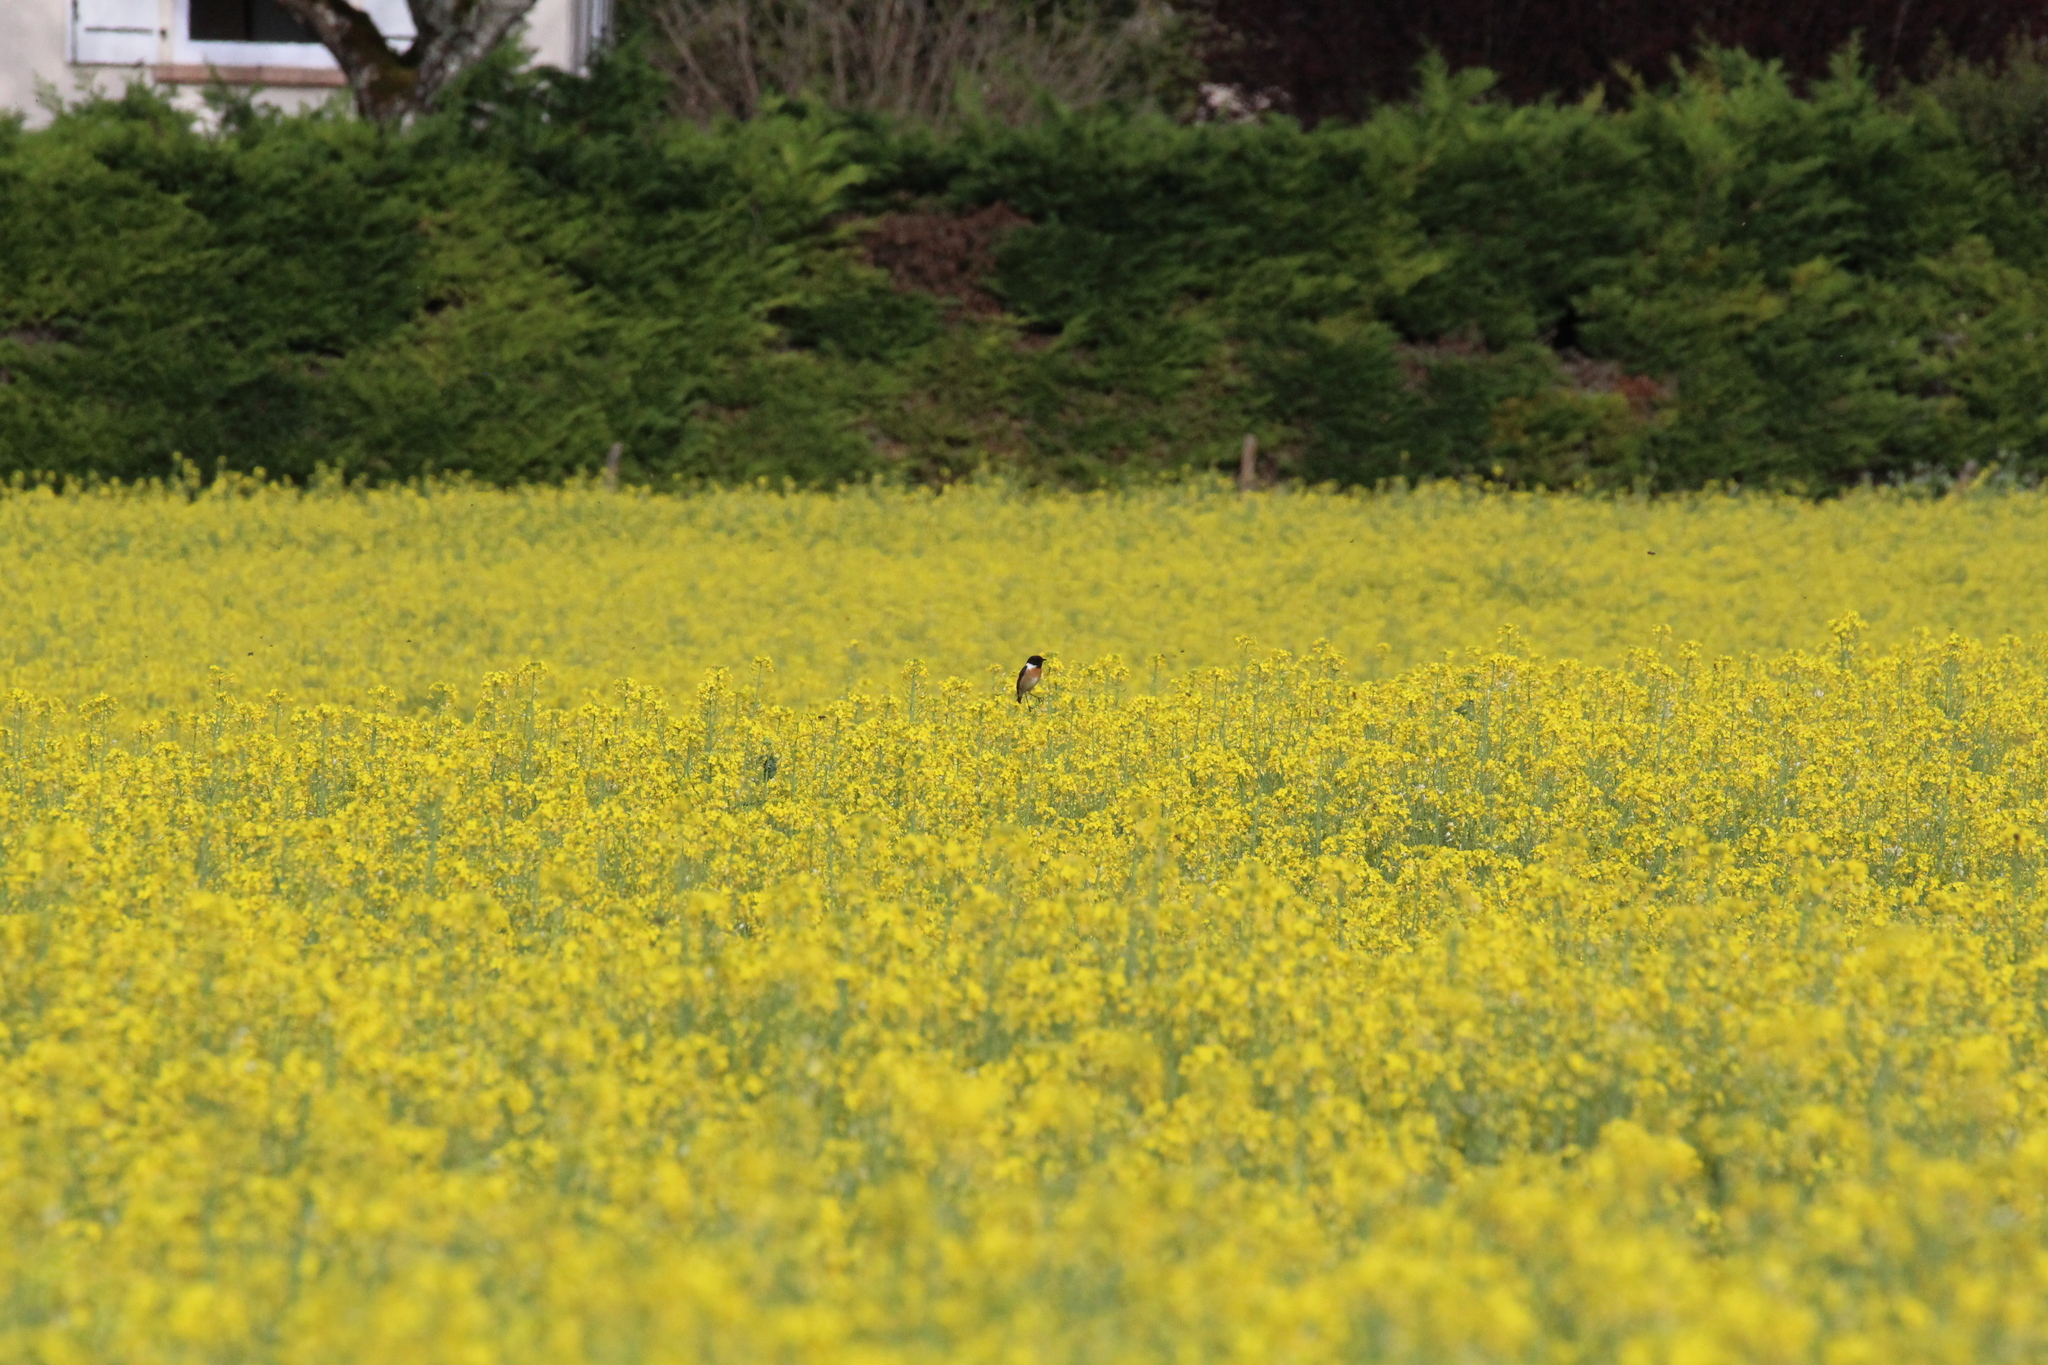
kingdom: Animalia
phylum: Chordata
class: Aves
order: Passeriformes
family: Muscicapidae
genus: Saxicola
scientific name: Saxicola rubicola
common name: European stonechat
